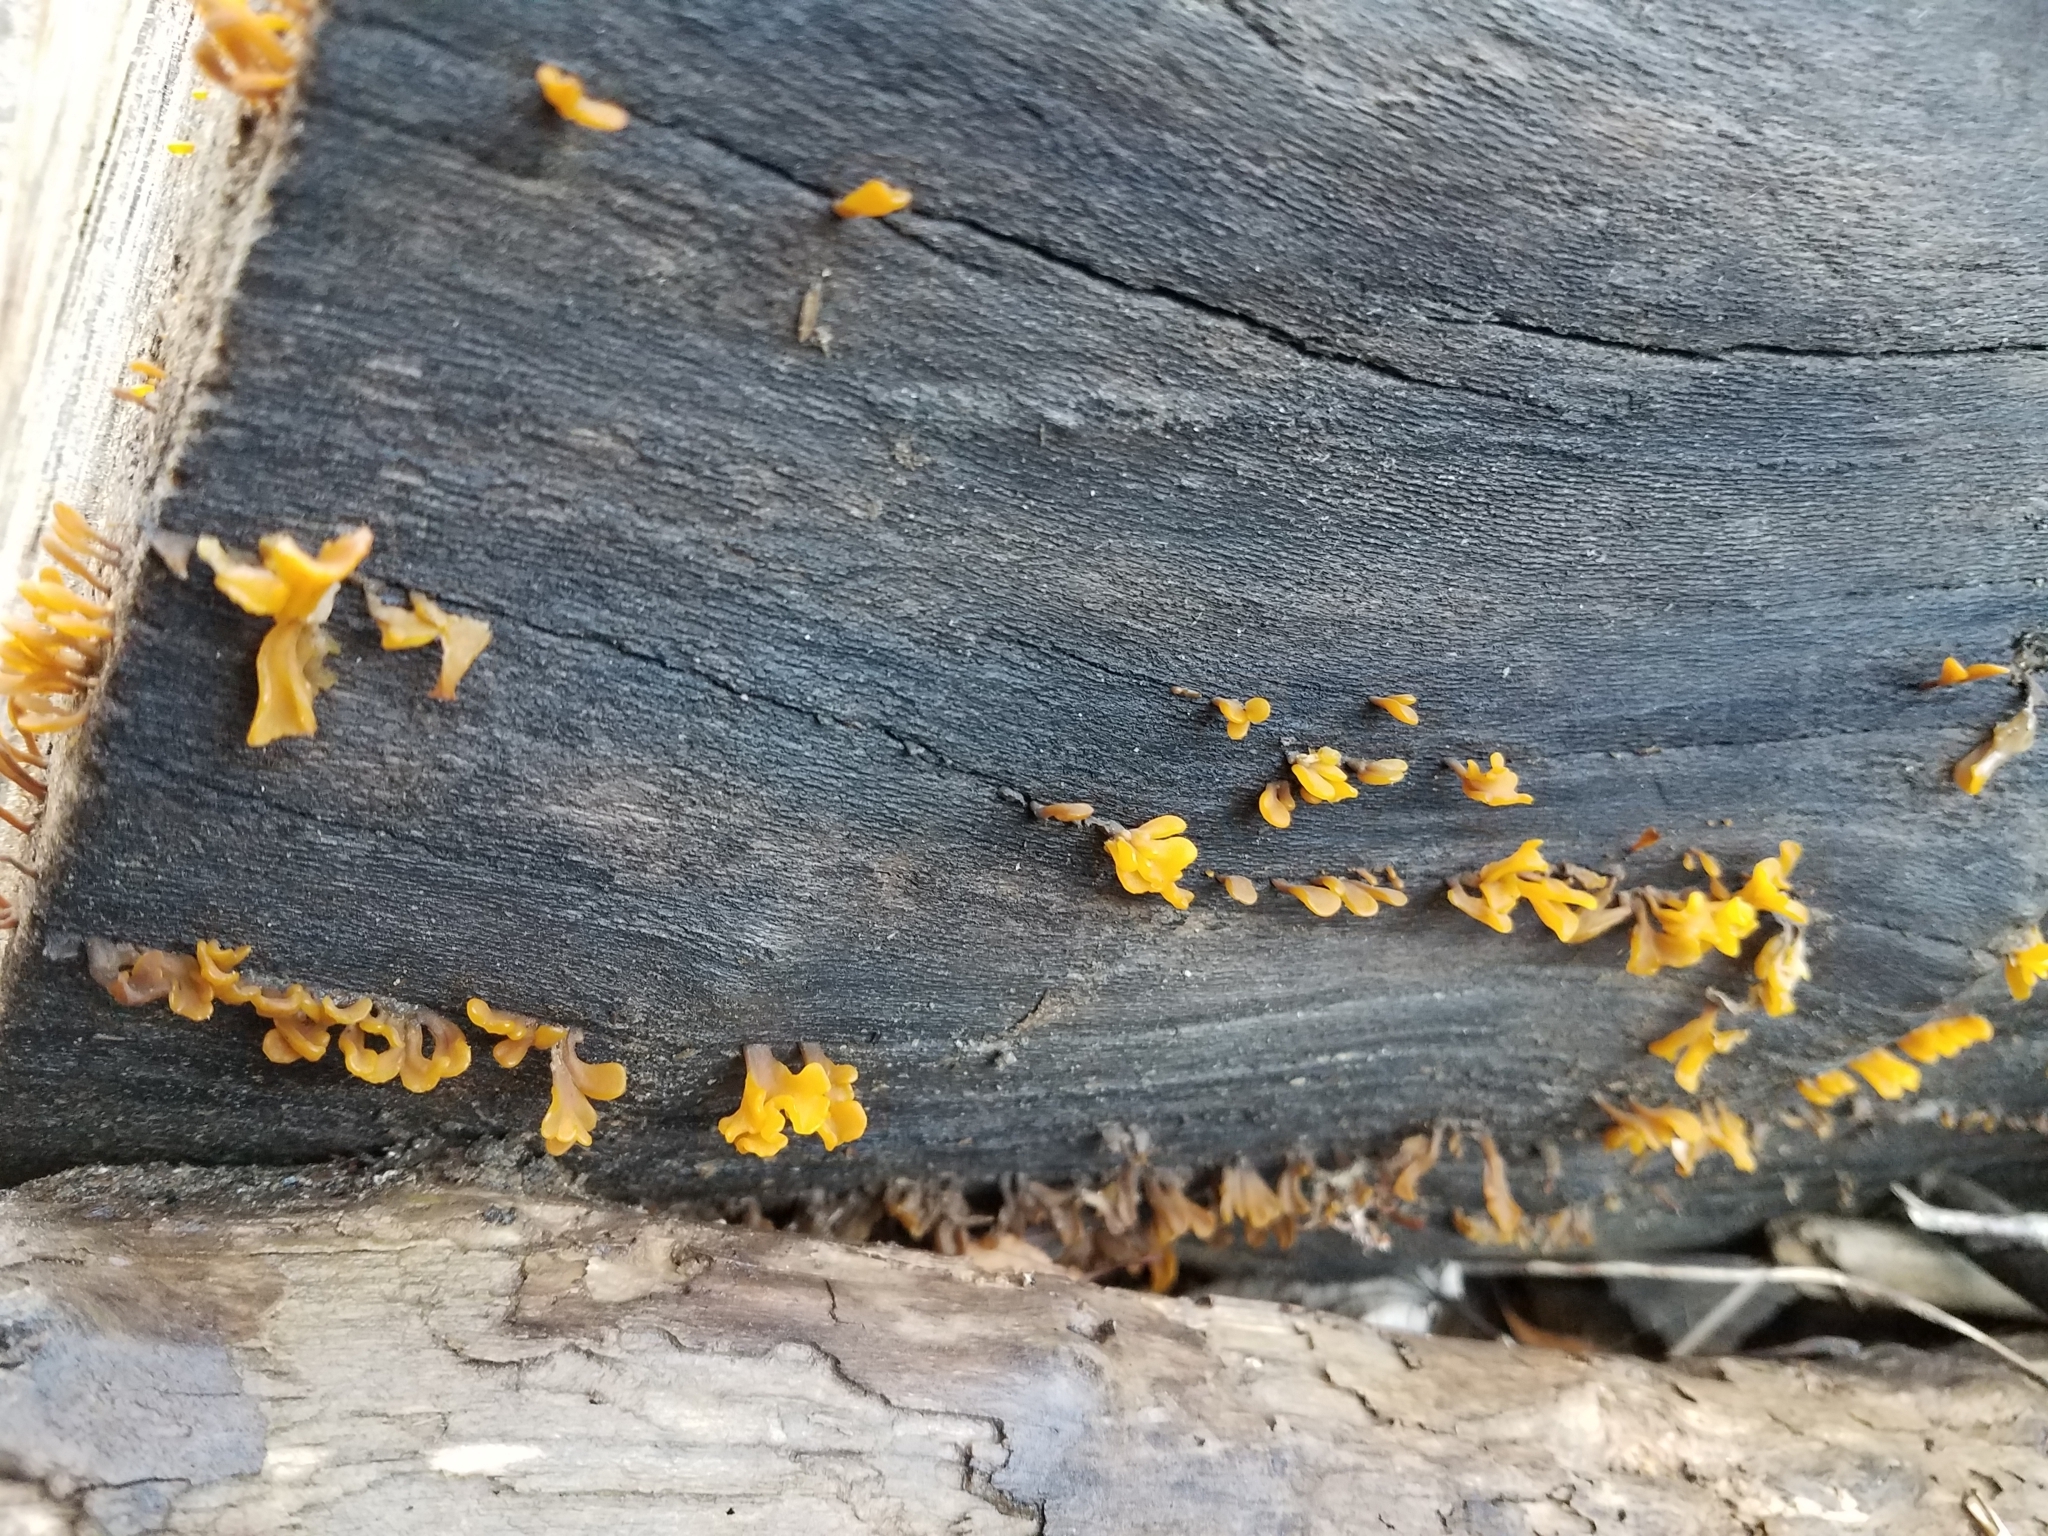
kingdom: Fungi
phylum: Basidiomycota
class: Dacrymycetes
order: Dacrymycetales
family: Dacrymycetaceae
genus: Dacrymyces
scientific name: Dacrymyces spathularius
